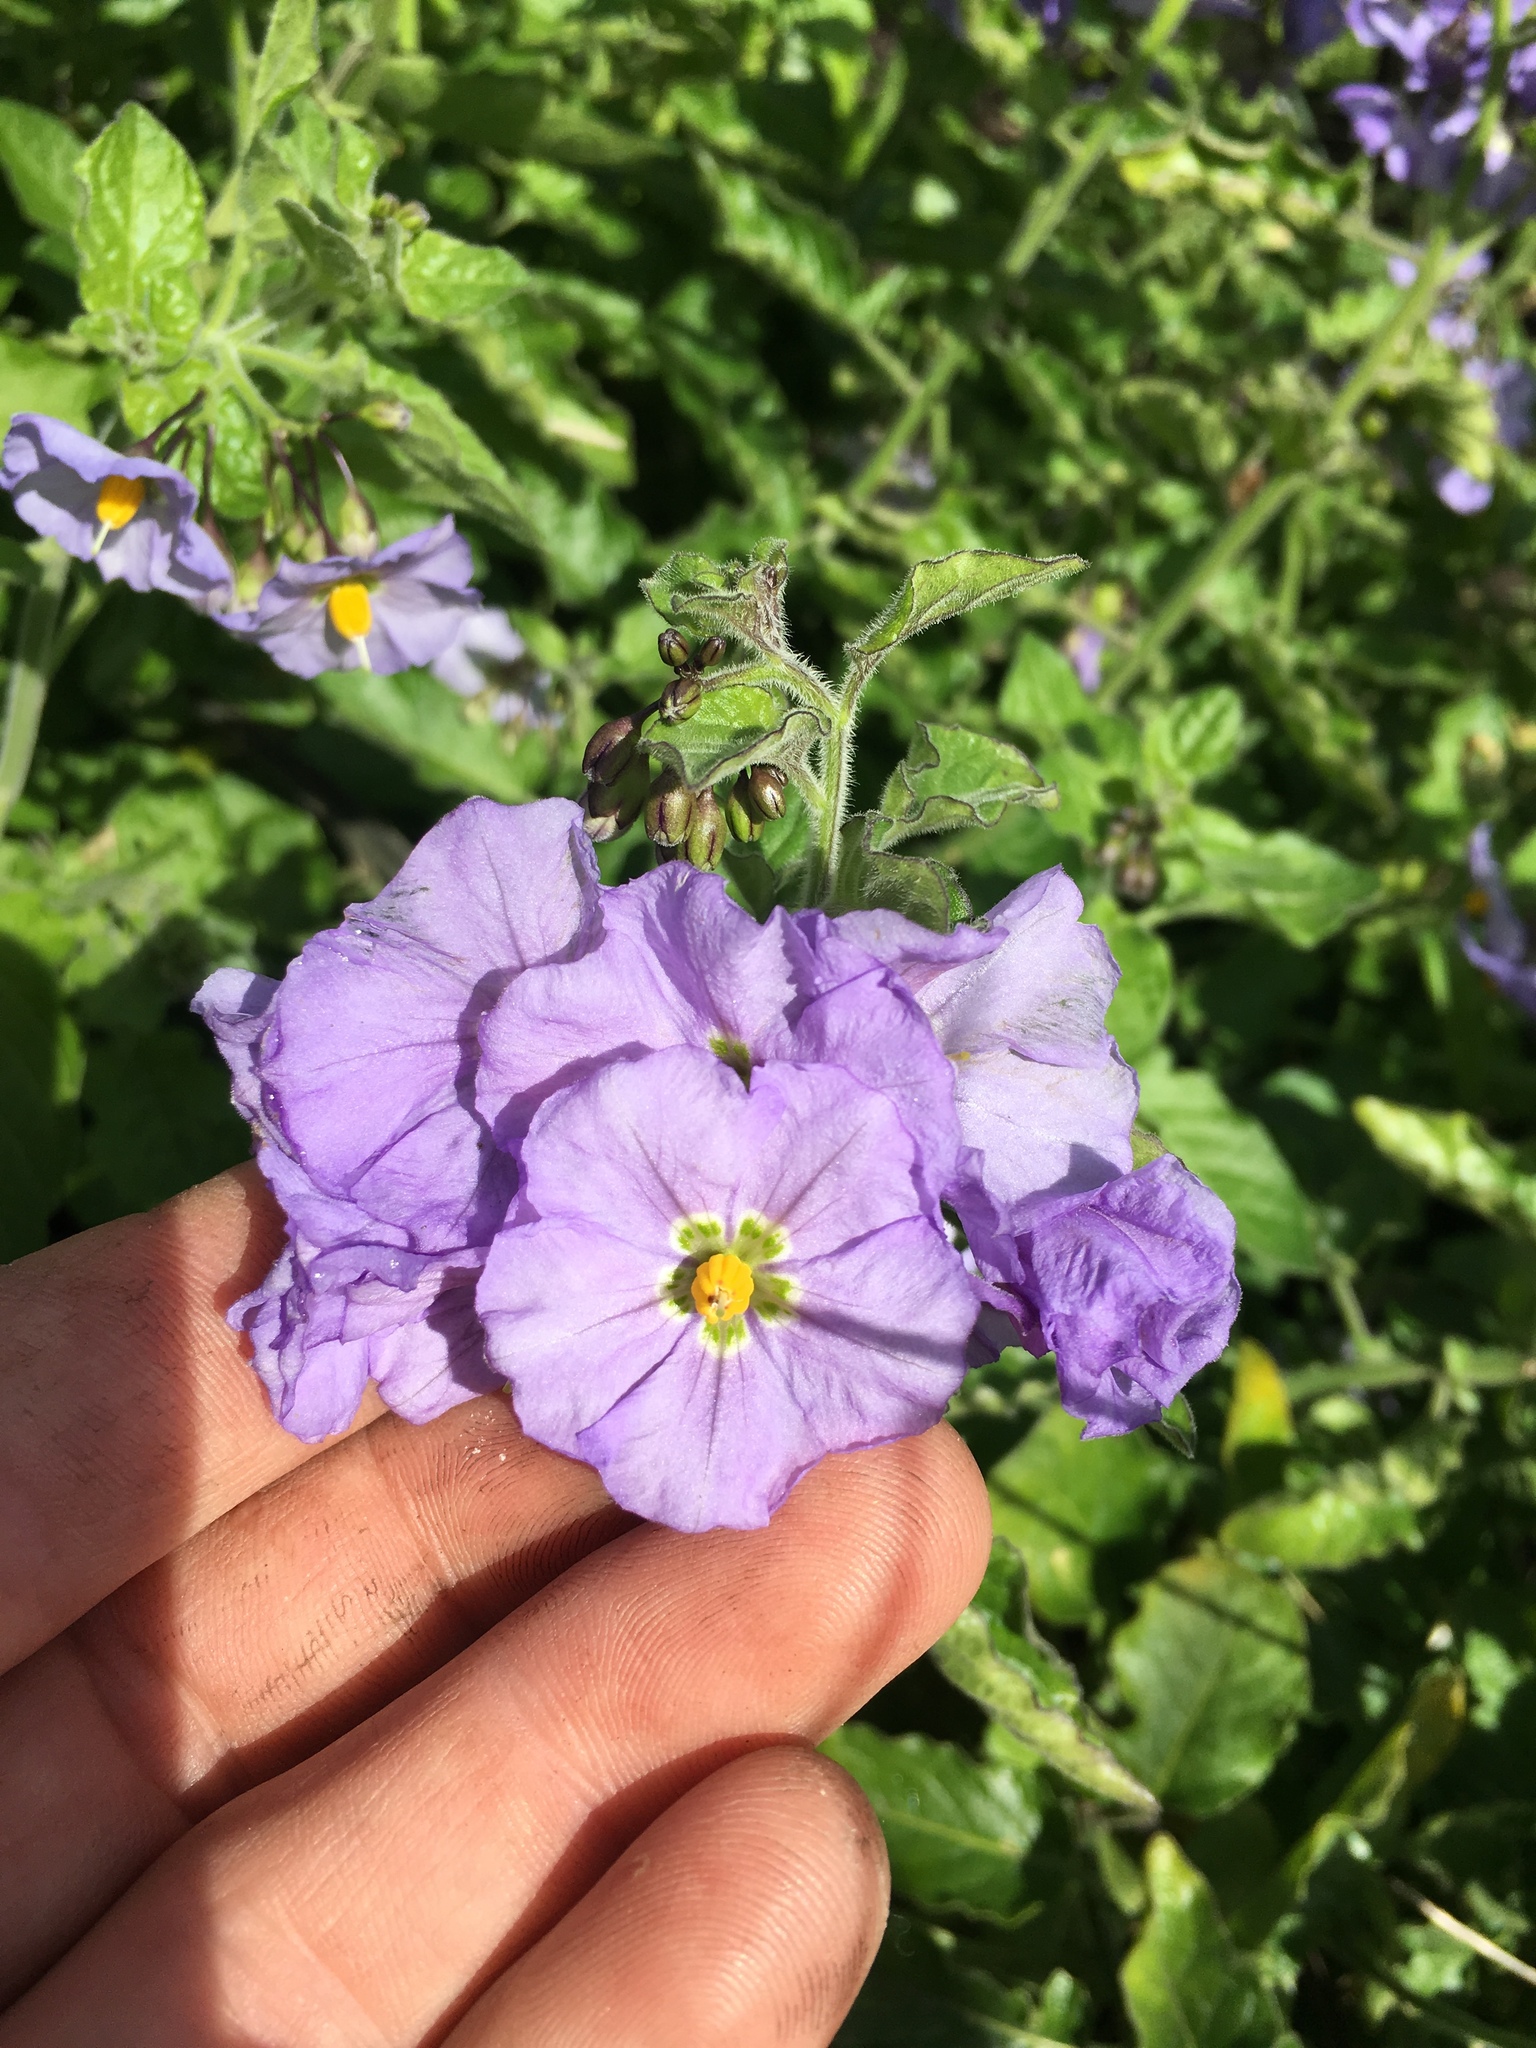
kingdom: Plantae
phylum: Tracheophyta
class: Magnoliopsida
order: Solanales
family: Solanaceae
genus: Solanum
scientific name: Solanum umbelliferum
